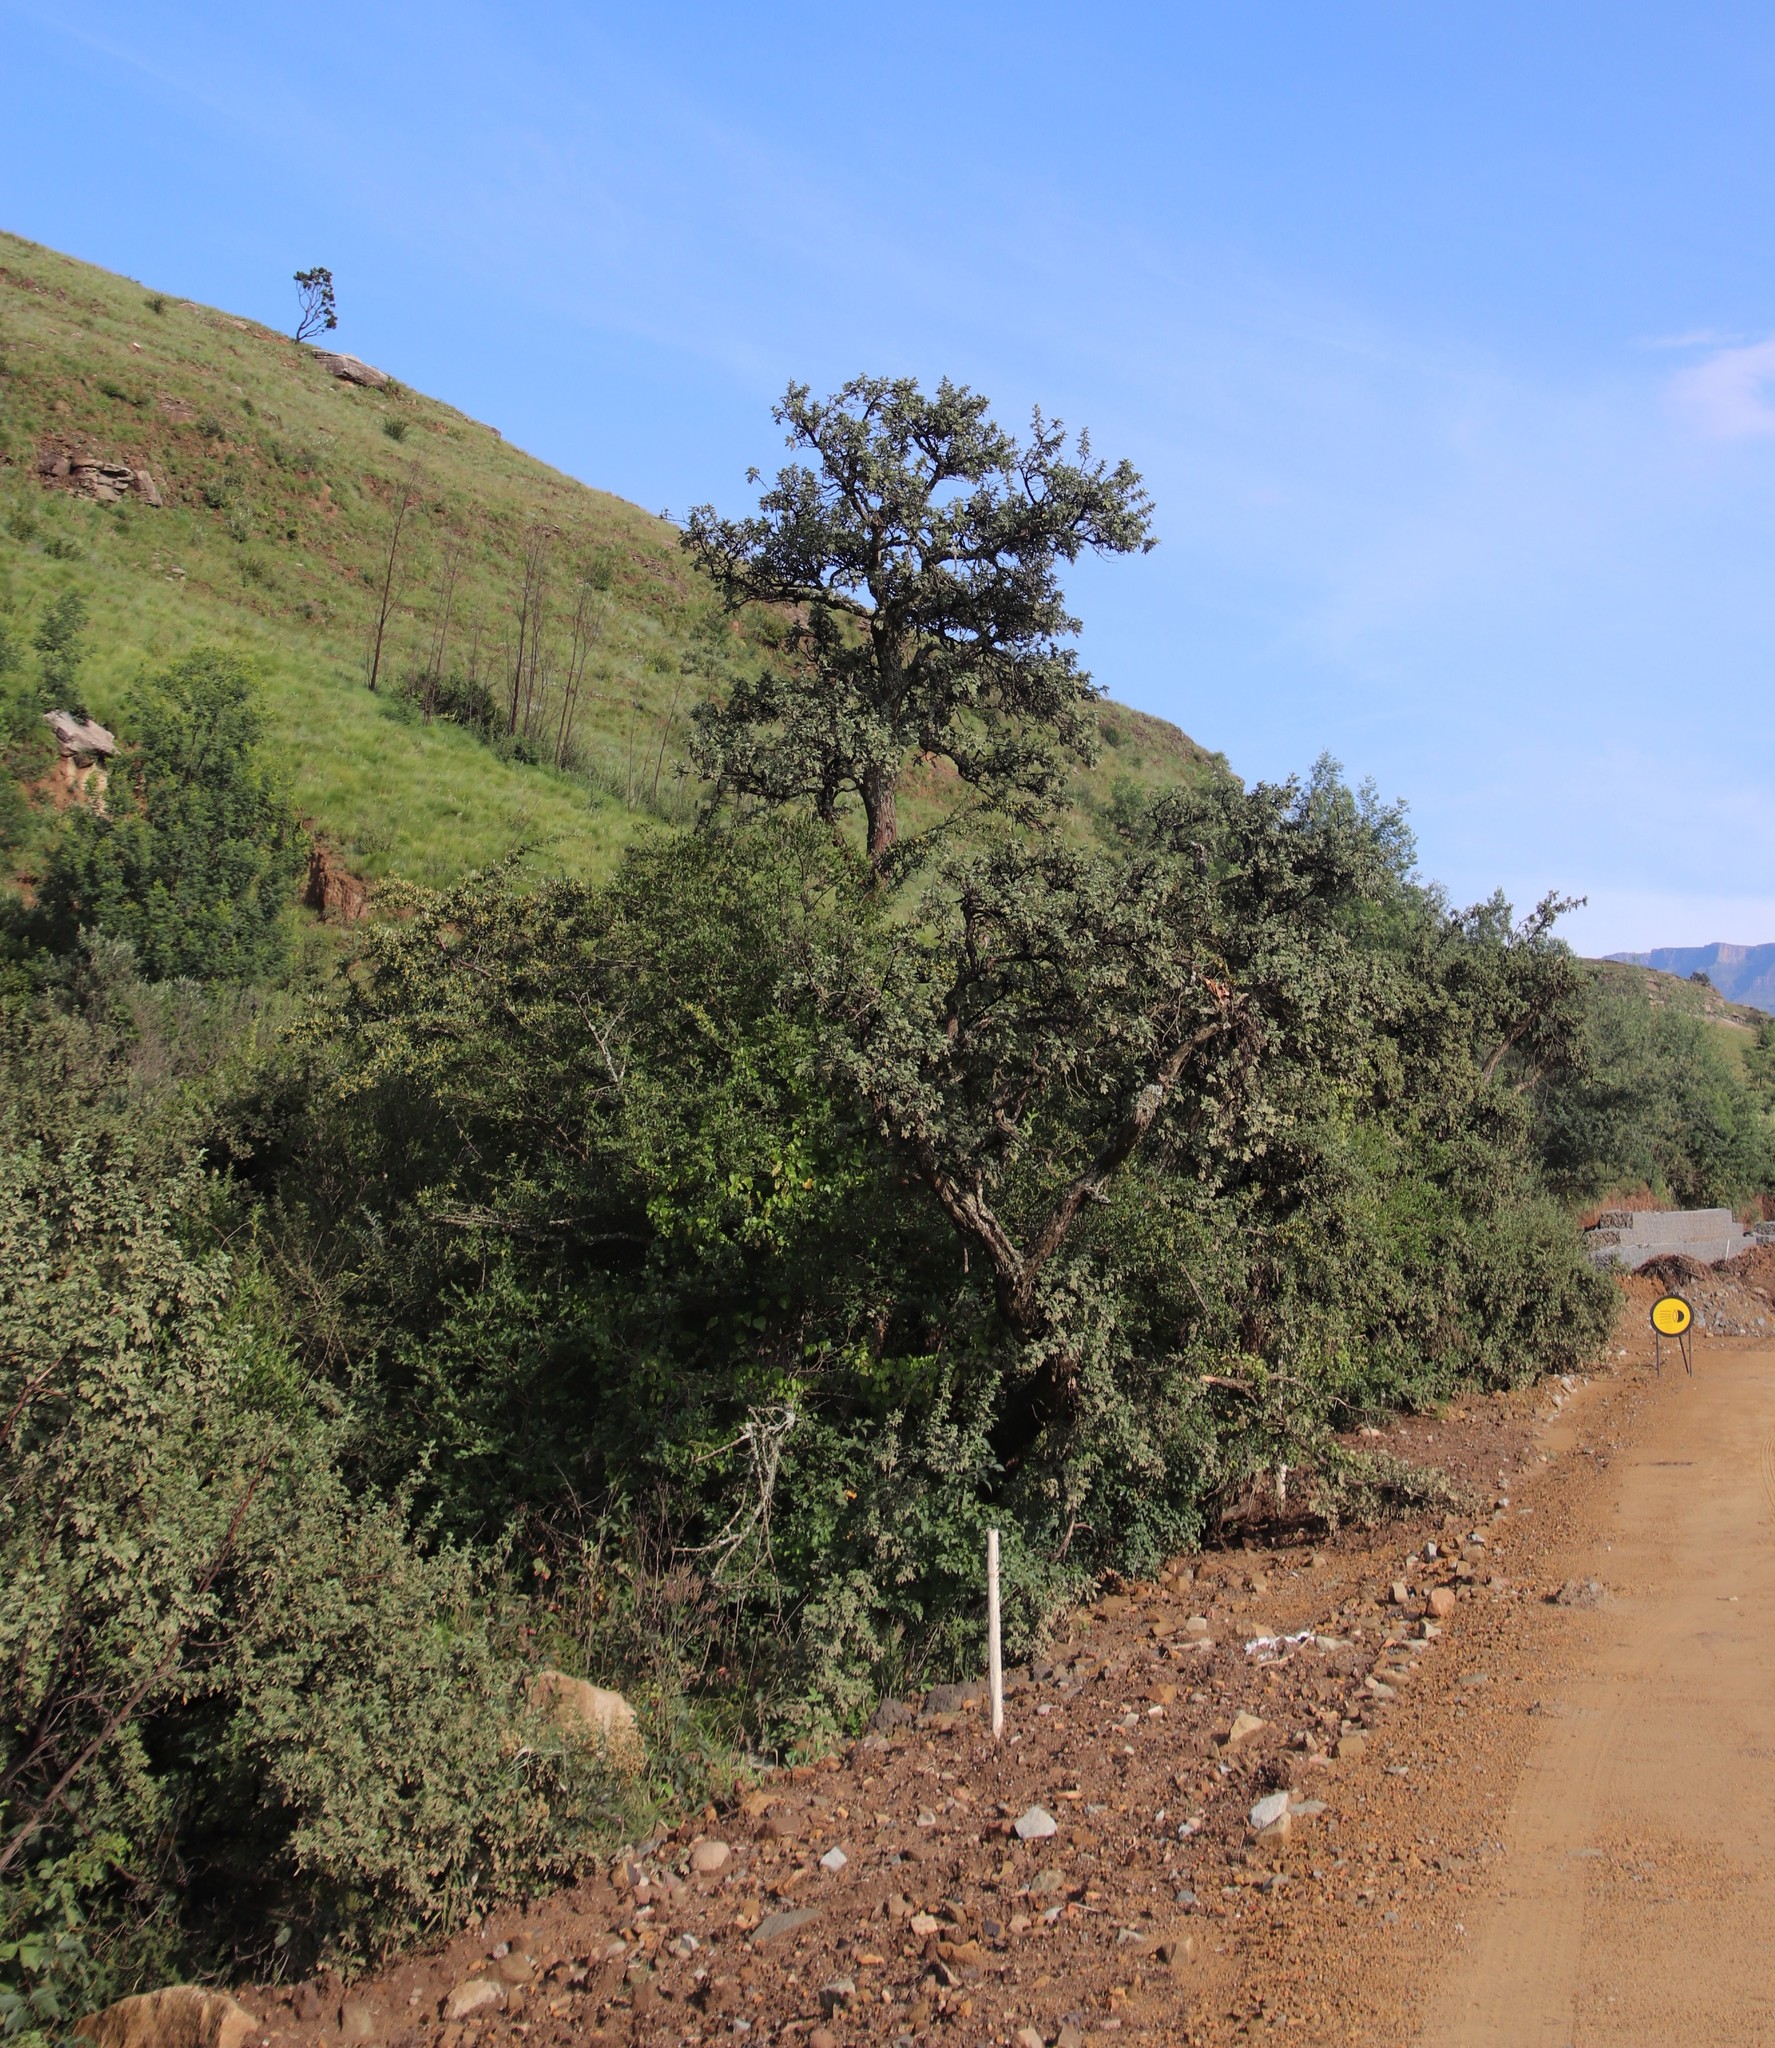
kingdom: Plantae
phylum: Tracheophyta
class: Magnoliopsida
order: Rosales
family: Rosaceae
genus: Leucosidea
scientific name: Leucosidea sericea
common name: Oldwood
